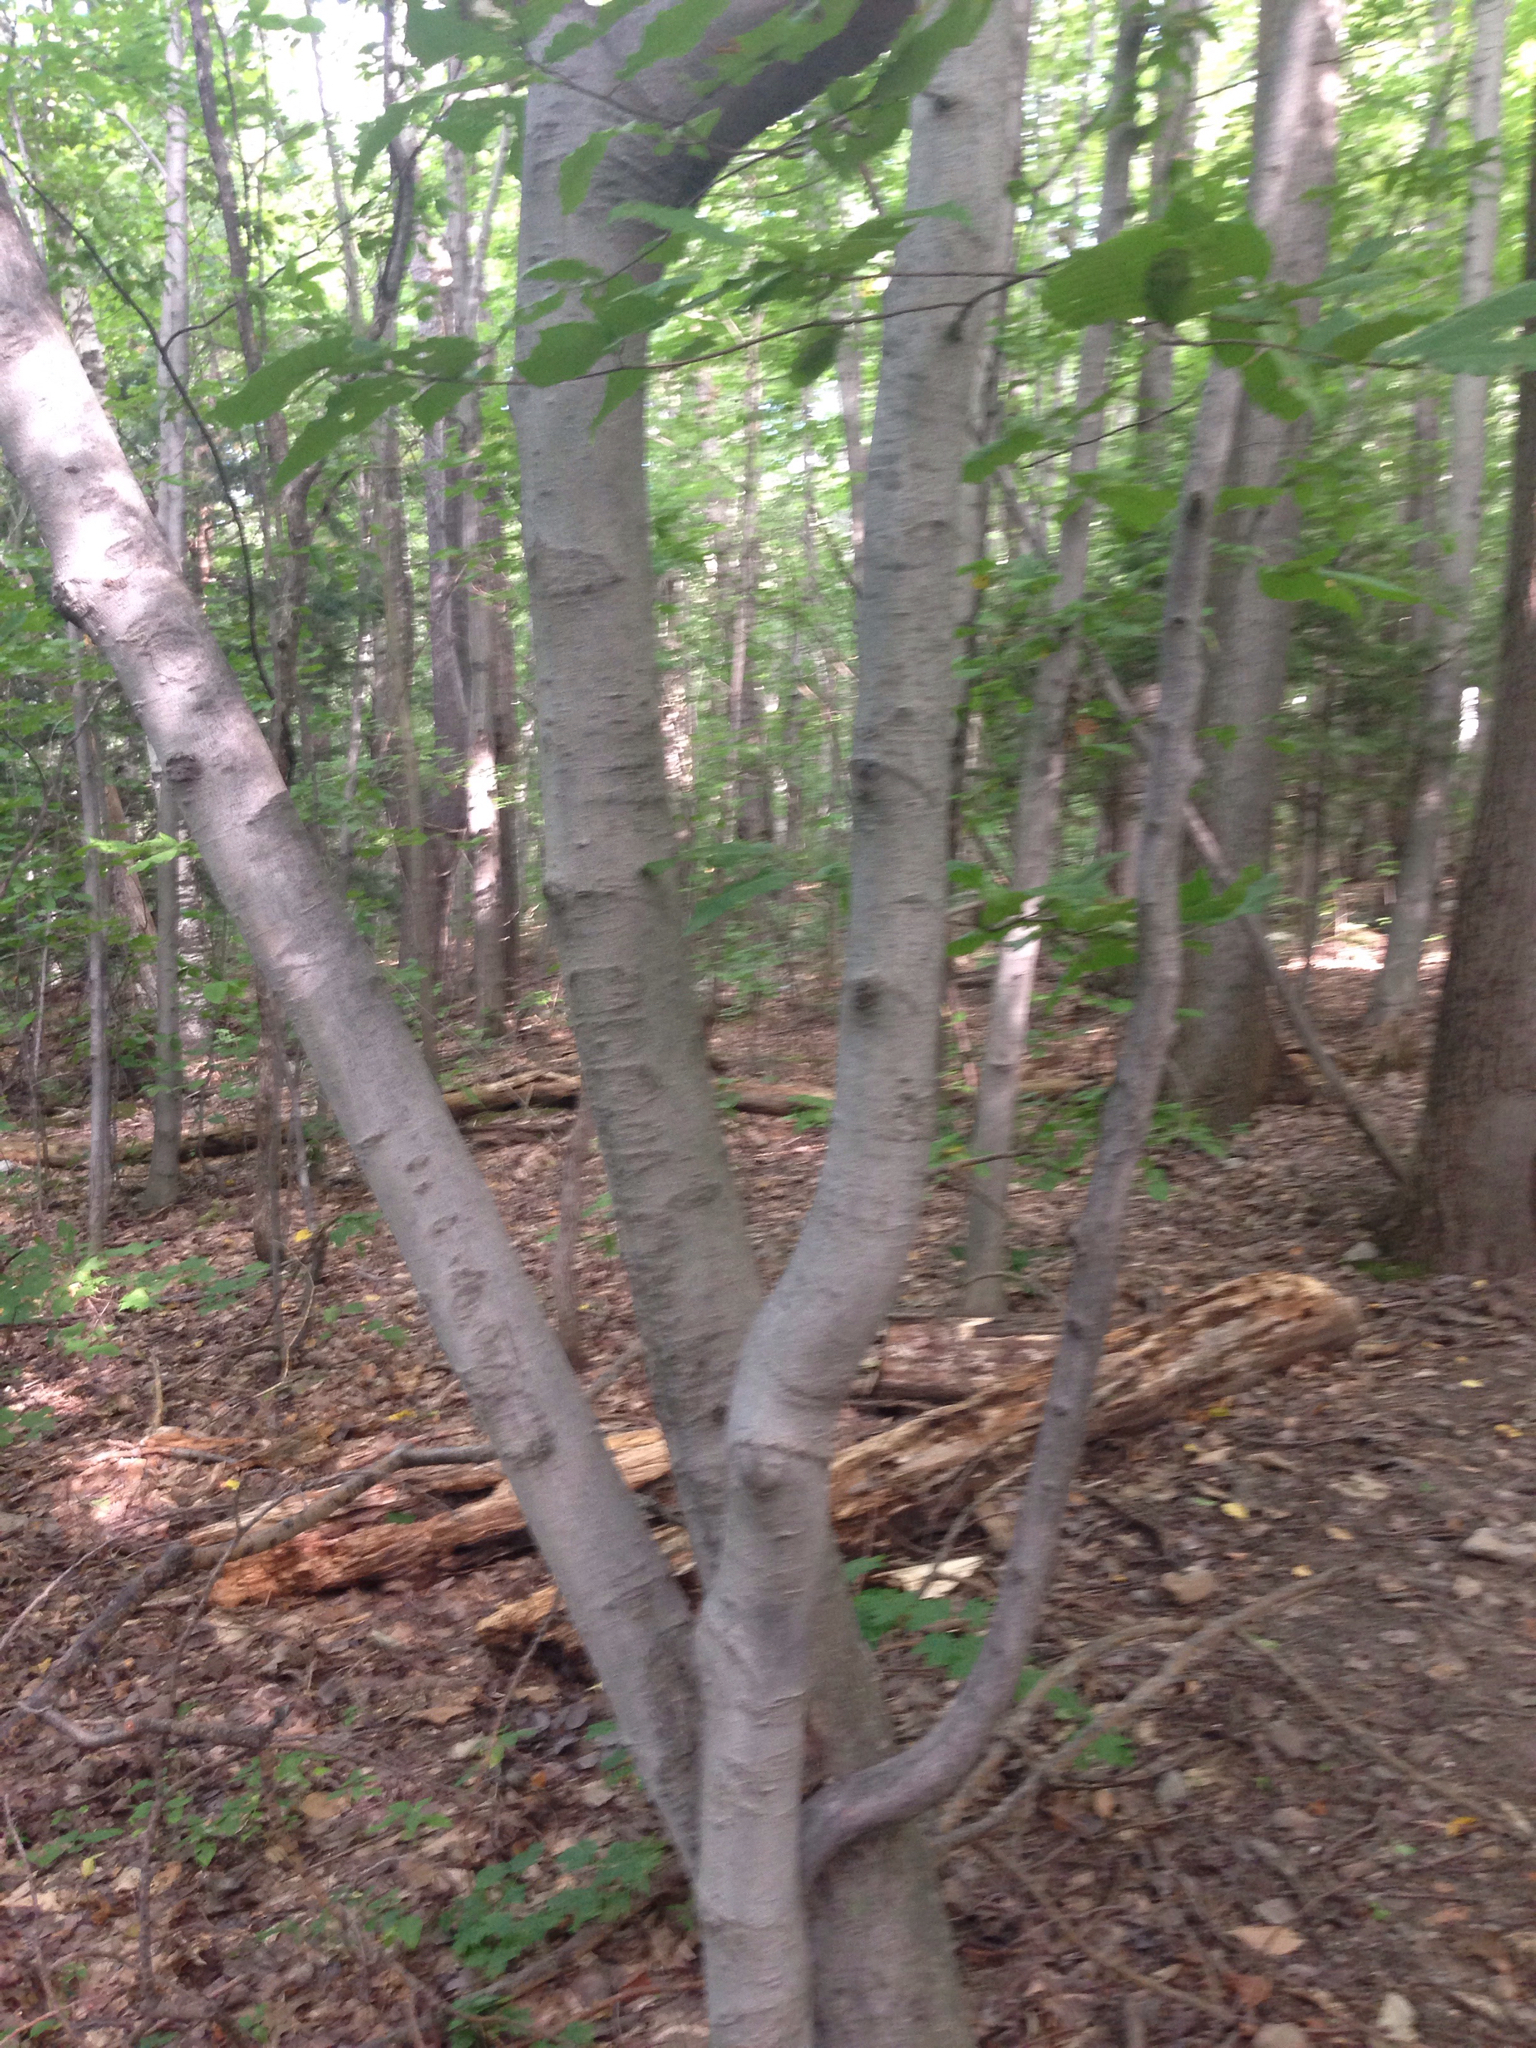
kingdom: Plantae
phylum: Tracheophyta
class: Magnoliopsida
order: Fagales
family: Fagaceae
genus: Fagus
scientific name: Fagus grandifolia
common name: American beech
